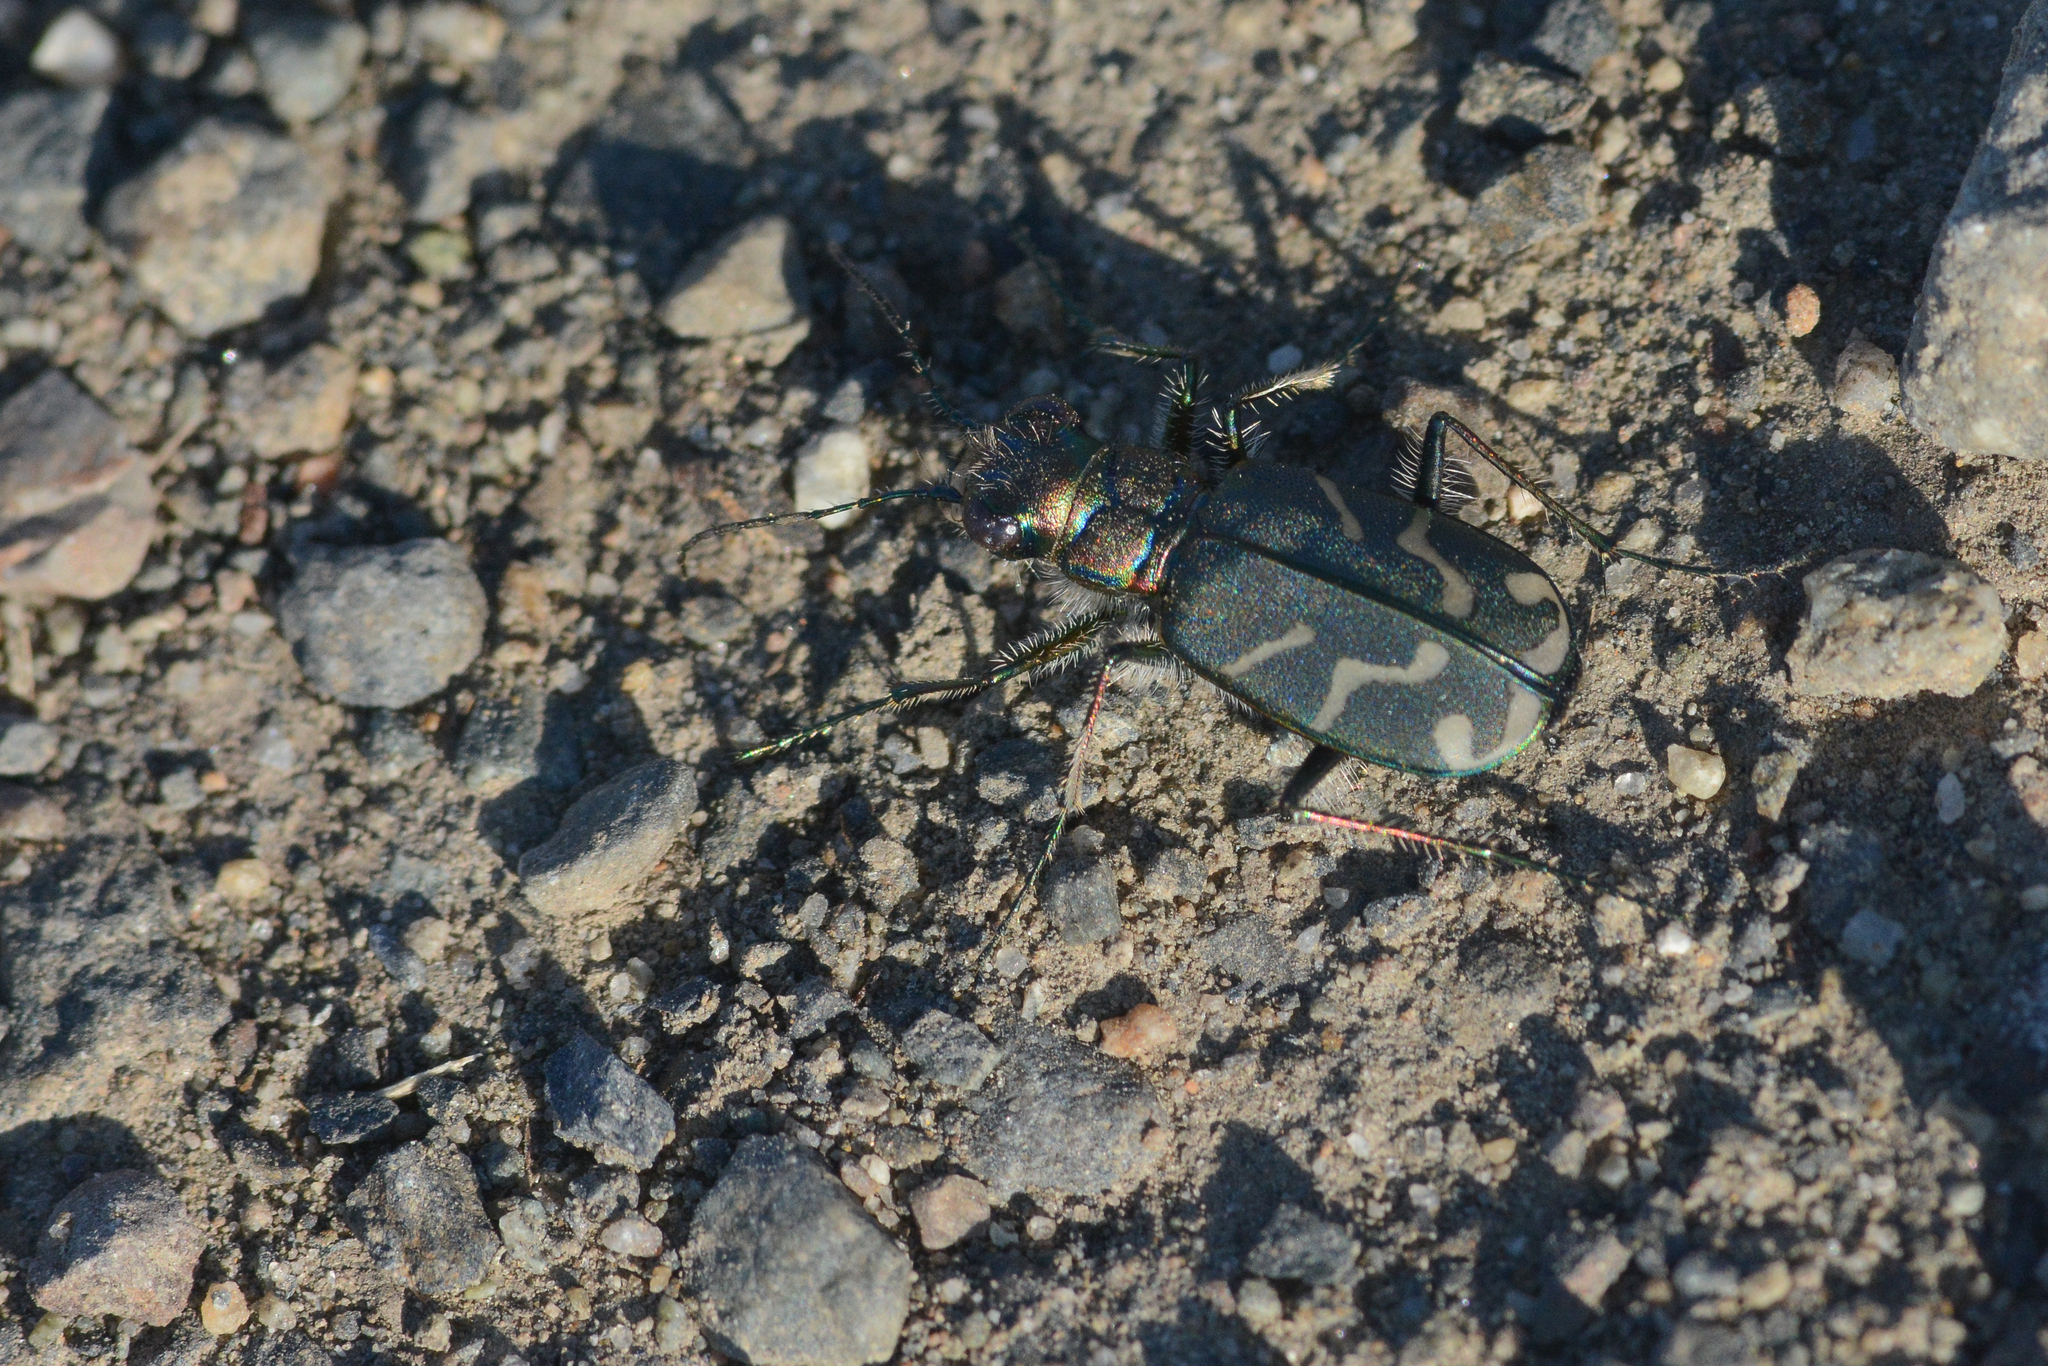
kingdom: Animalia
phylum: Arthropoda
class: Insecta
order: Coleoptera
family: Carabidae
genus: Cicindela
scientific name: Cicindela tranquebarica
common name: Oblique-lined tiger beetle
